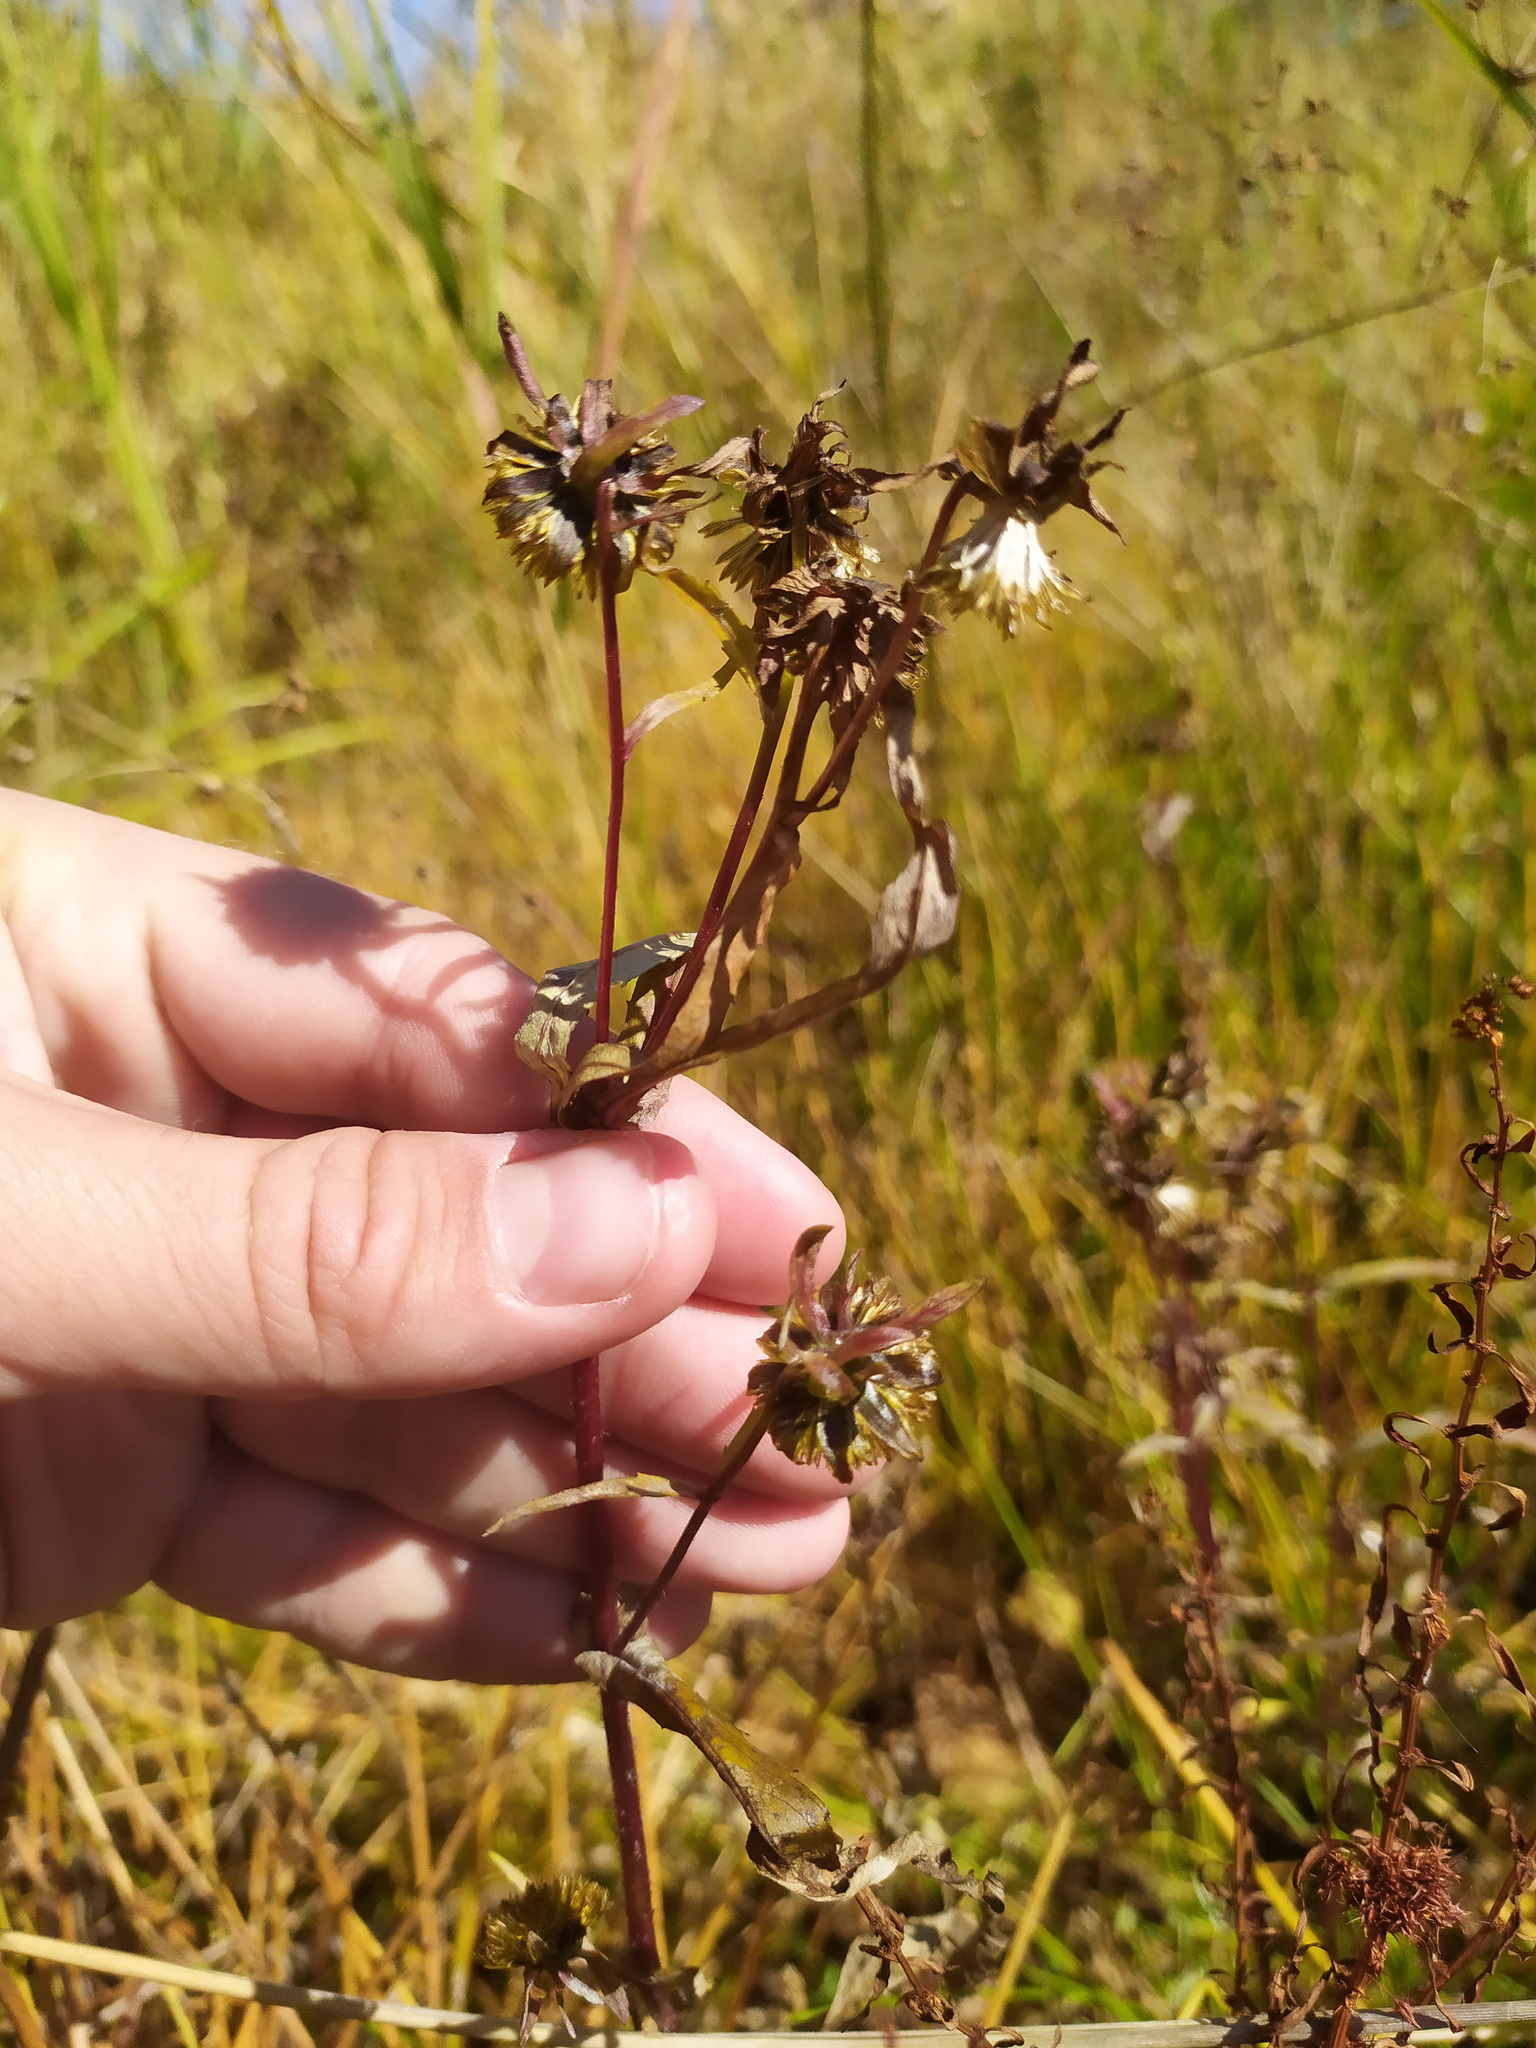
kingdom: Plantae
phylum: Tracheophyta
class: Magnoliopsida
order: Asterales
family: Asteraceae
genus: Bidens
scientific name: Bidens cernua
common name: Nodding bur-marigold
